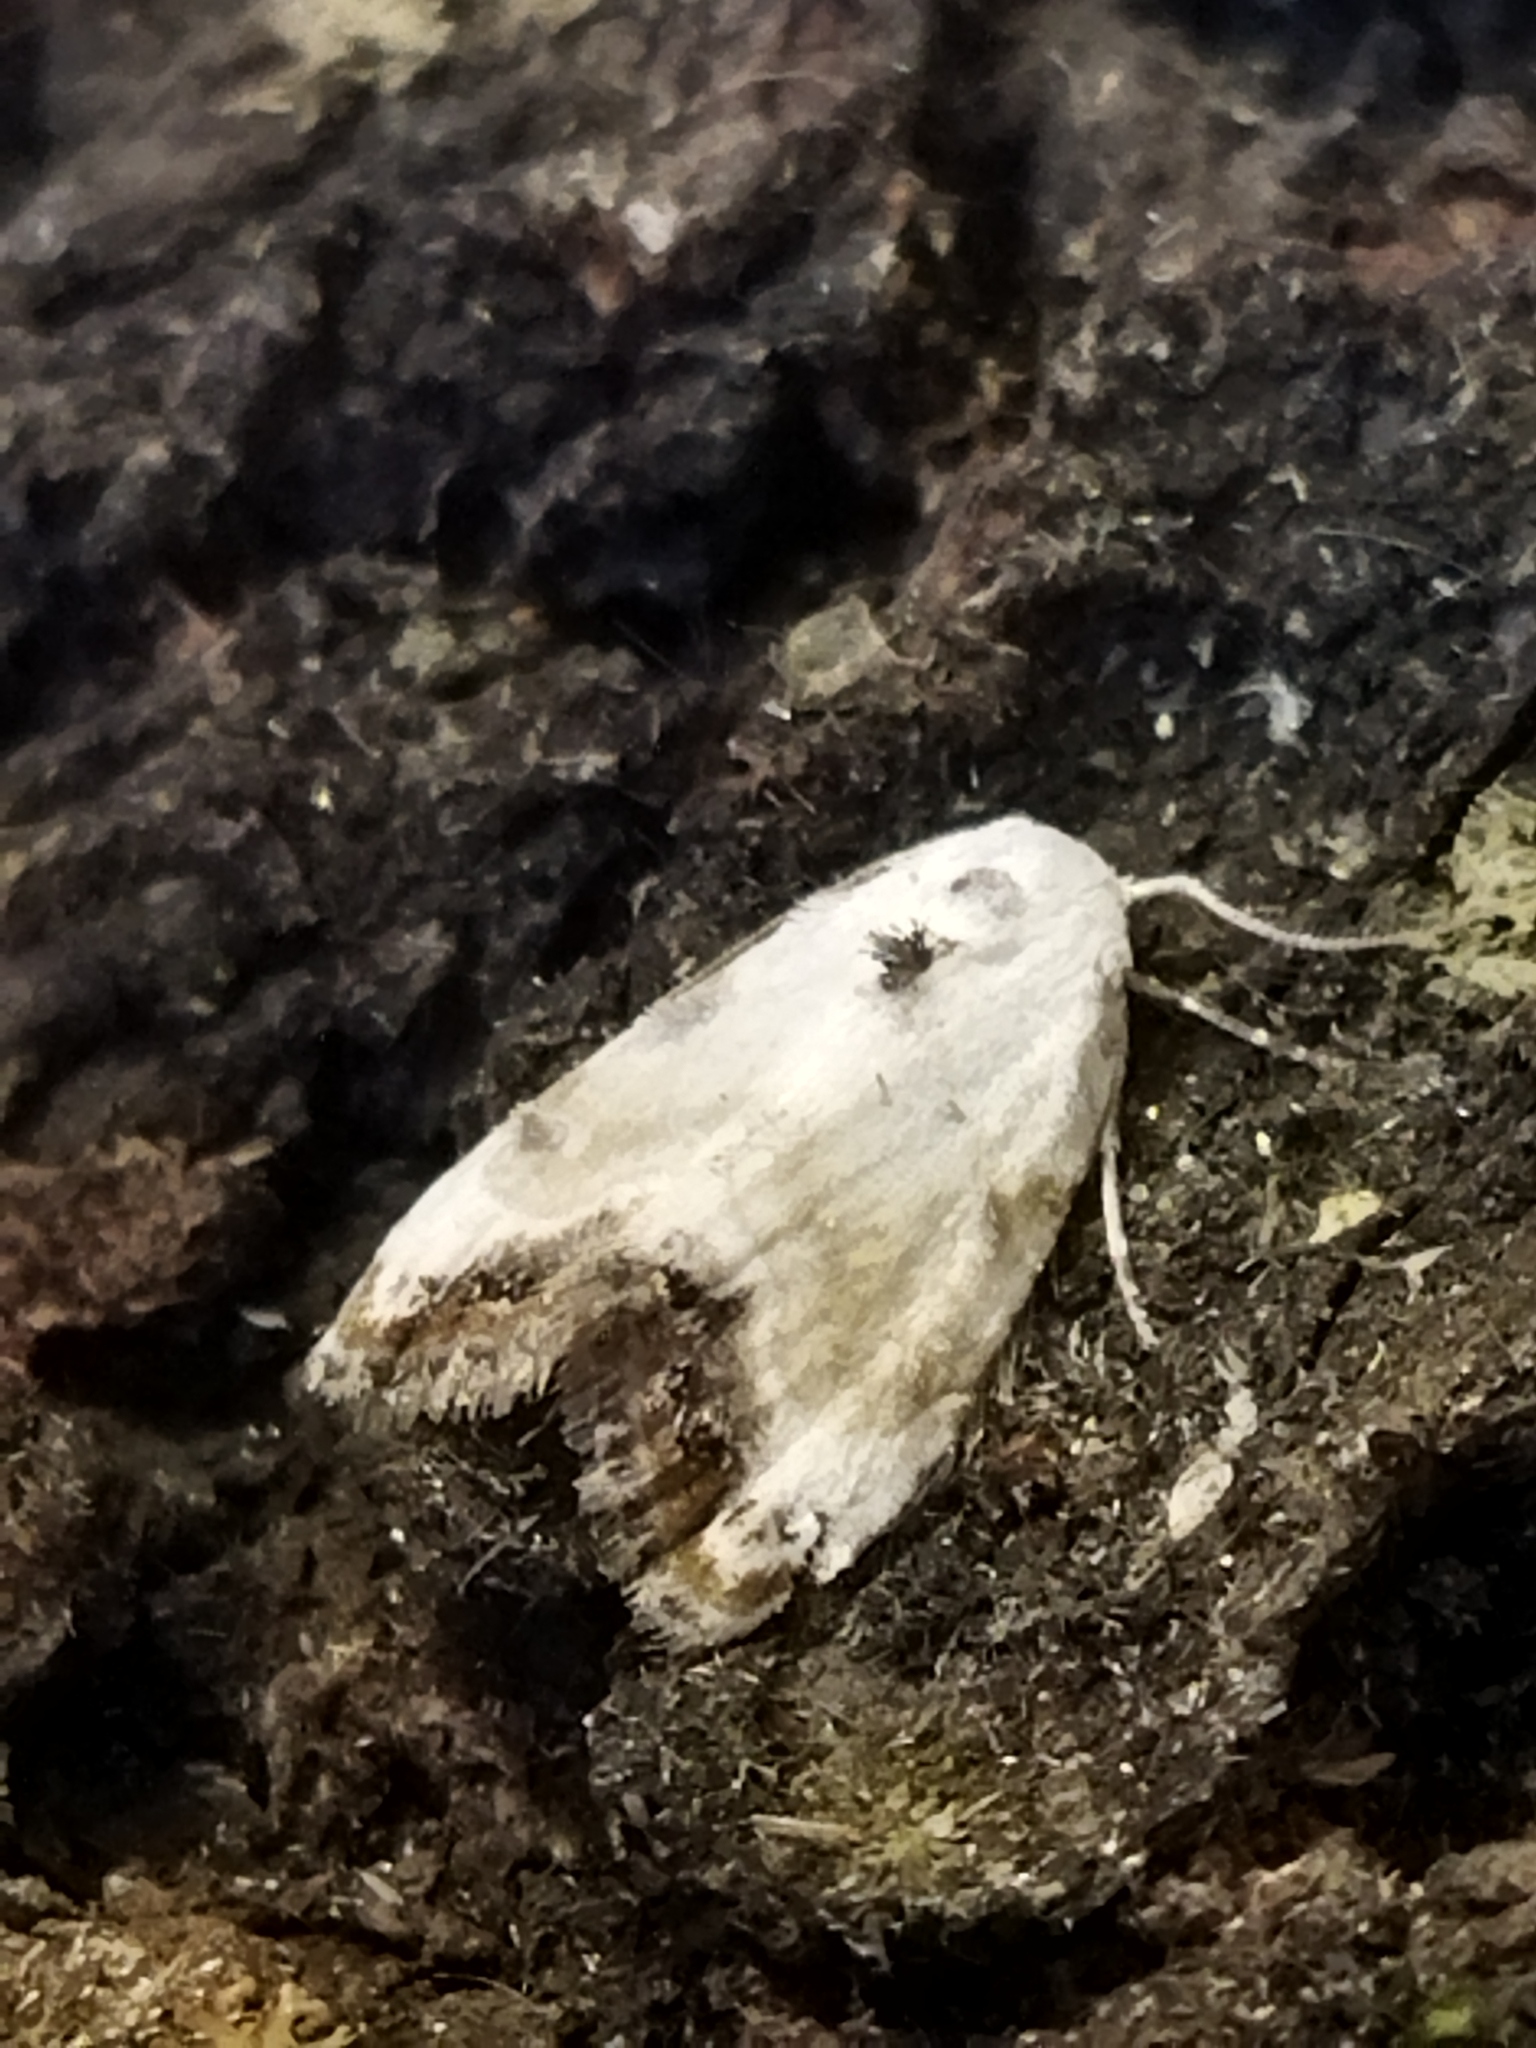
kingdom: Animalia
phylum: Arthropoda
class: Insecta
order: Lepidoptera
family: Nolidae
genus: Nola
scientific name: Nola chlamitulalis
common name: Jersey black arches
